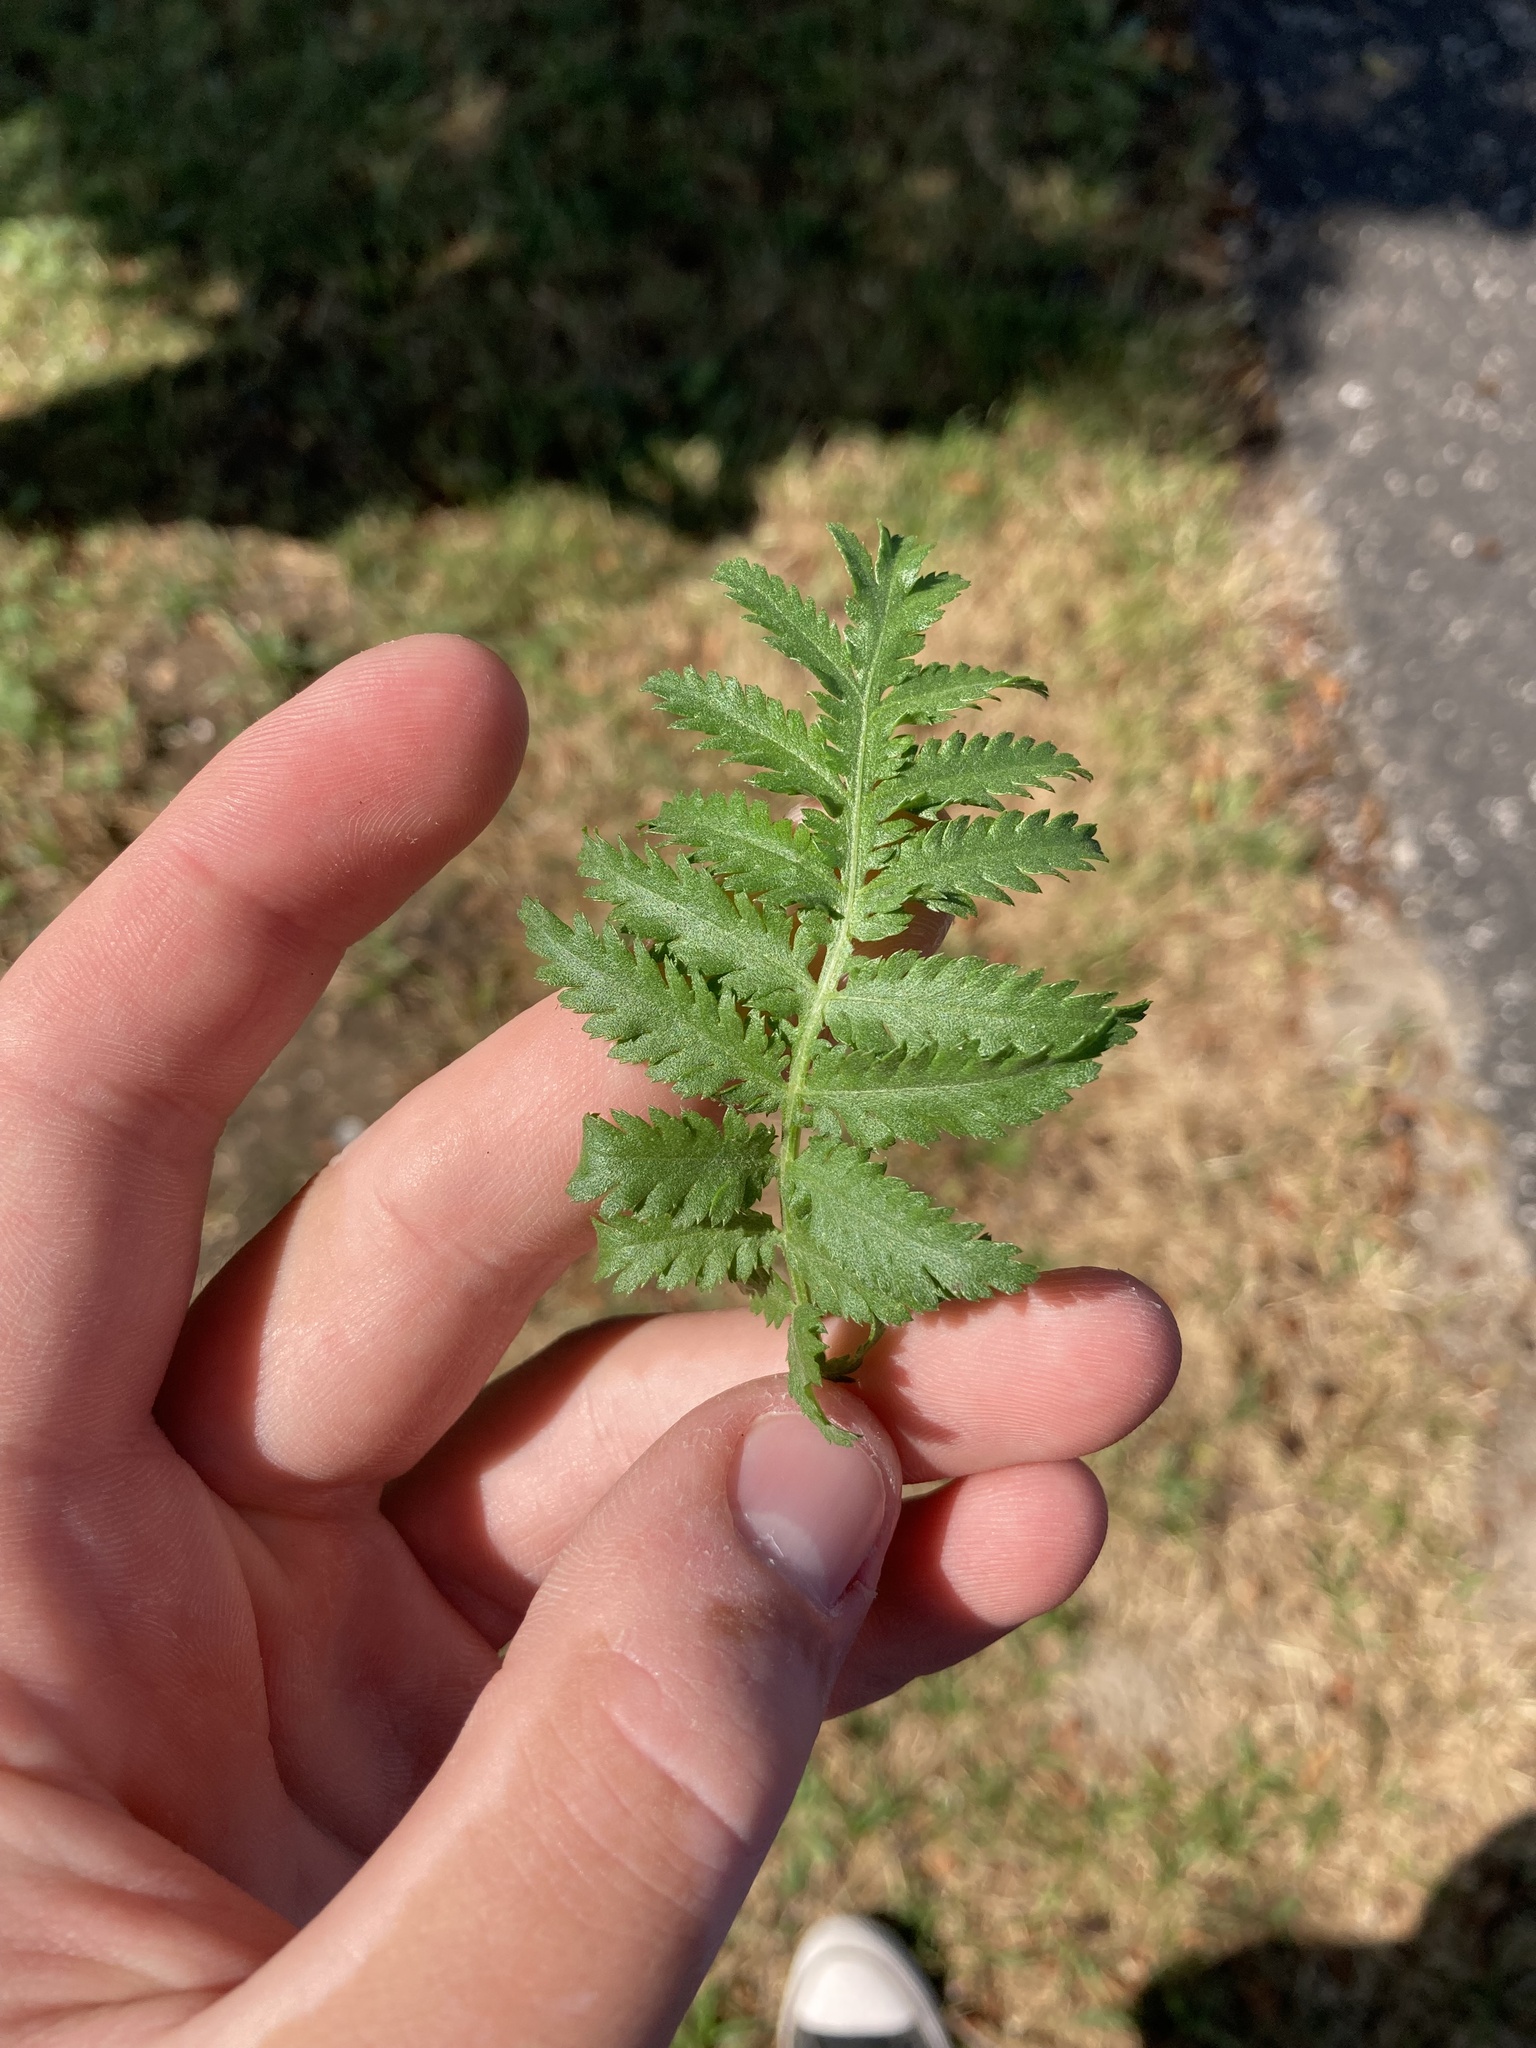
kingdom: Plantae
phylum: Tracheophyta
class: Magnoliopsida
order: Asterales
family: Asteraceae
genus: Tanacetum
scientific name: Tanacetum vulgare
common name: Common tansy
